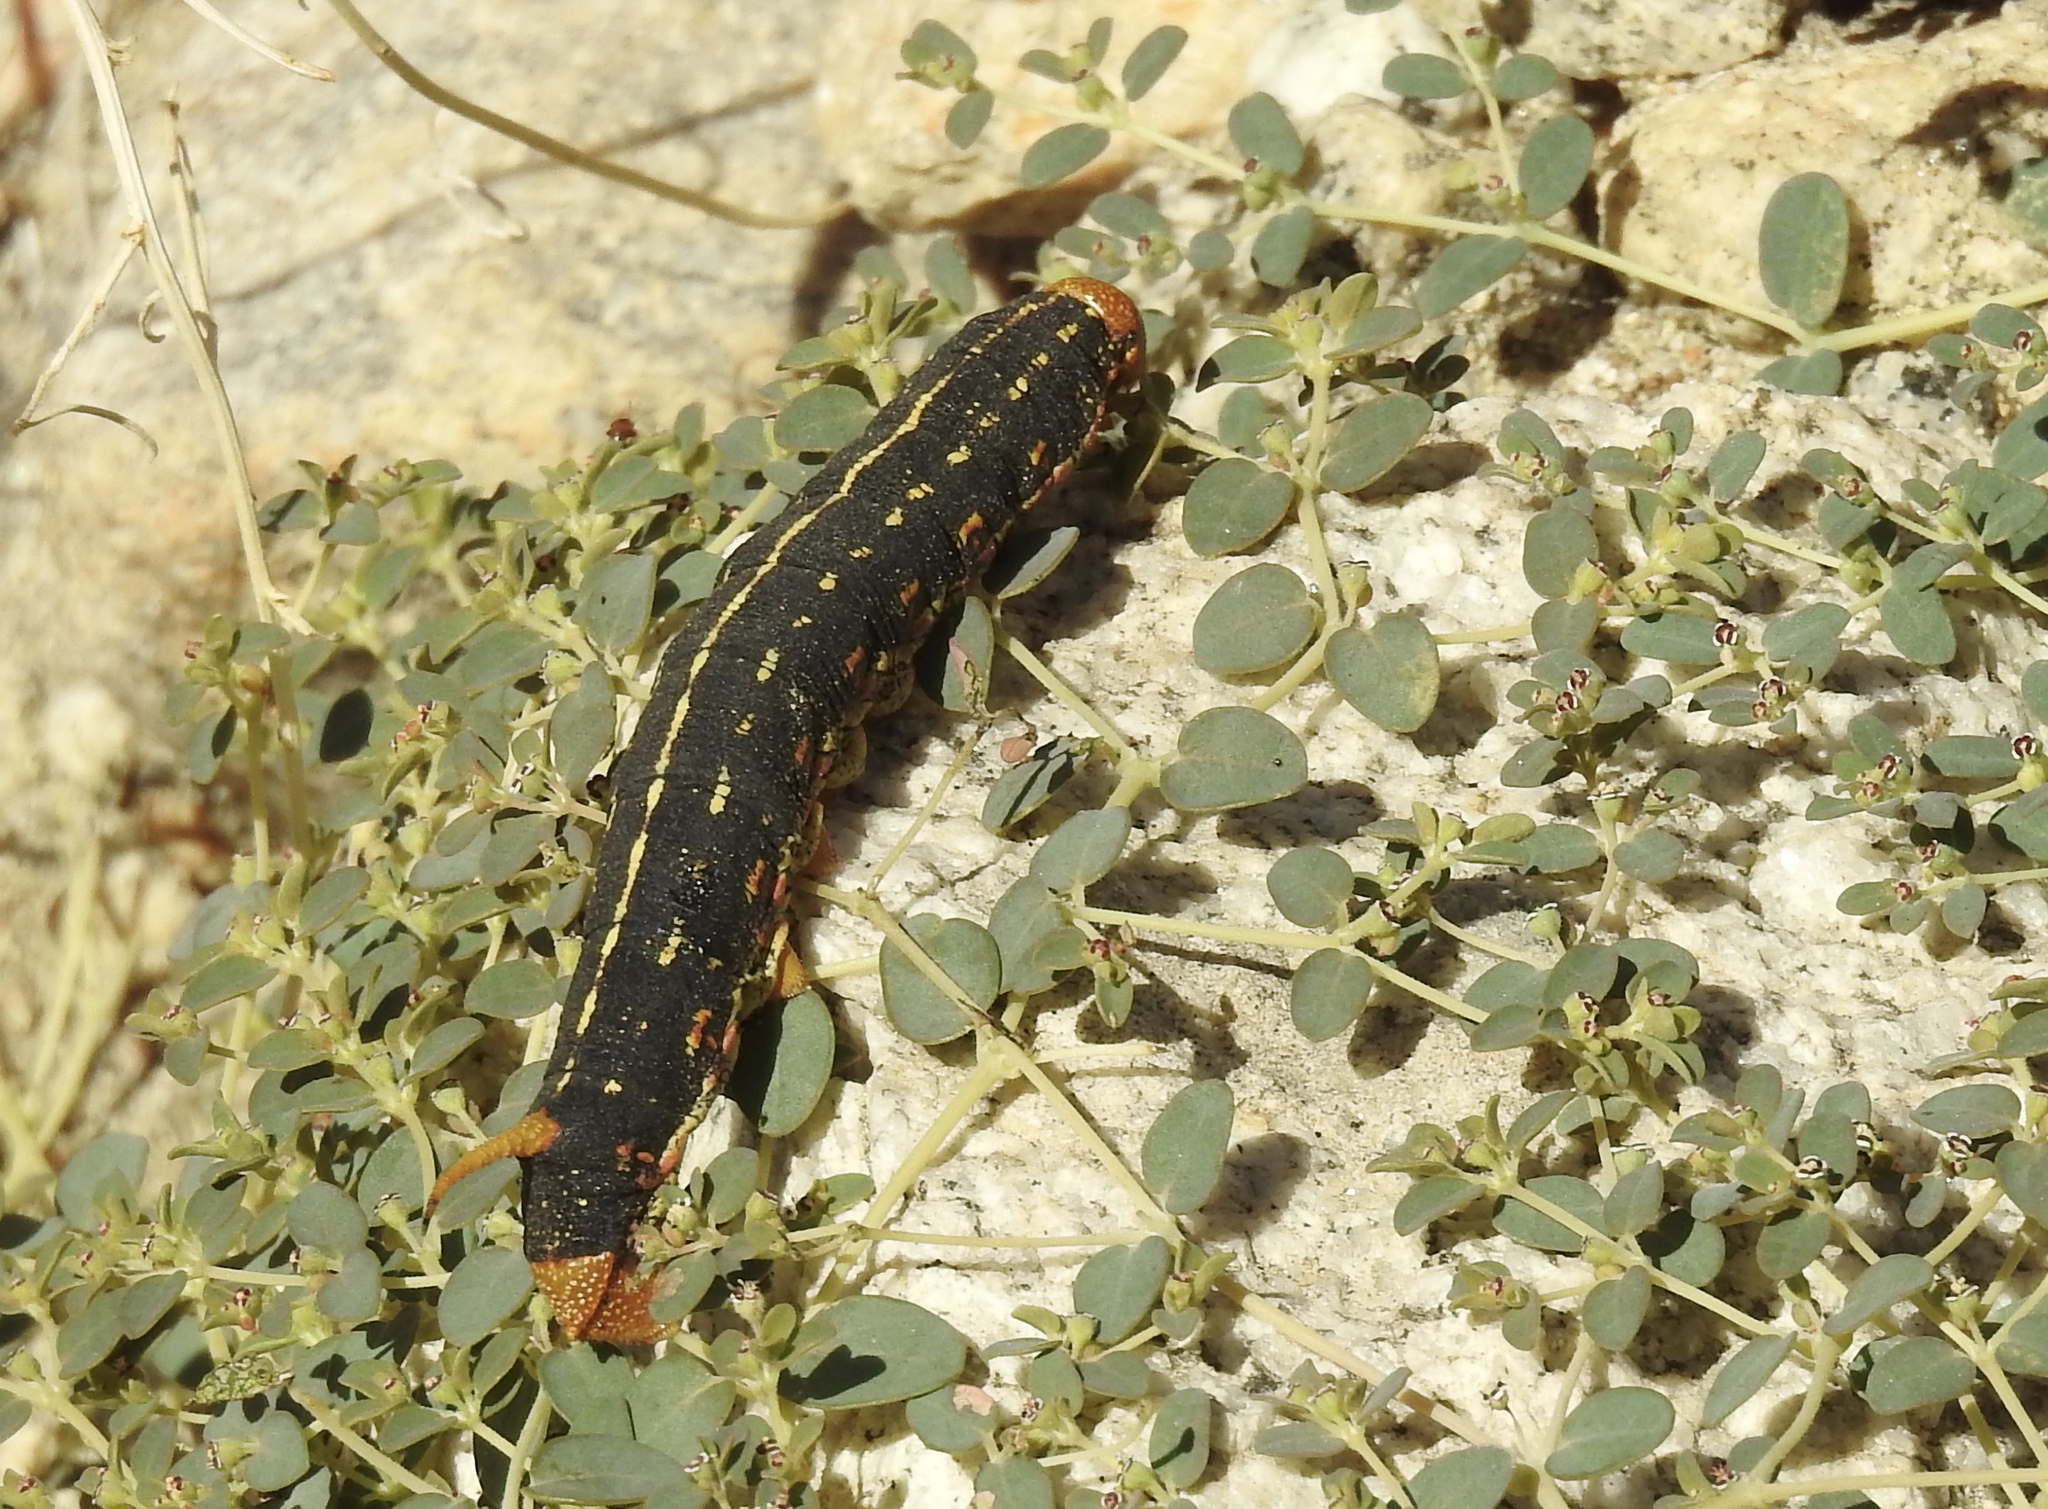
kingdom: Animalia
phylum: Arthropoda
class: Insecta
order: Lepidoptera
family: Sphingidae
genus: Hyles
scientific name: Hyles lineata
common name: White-lined sphinx
